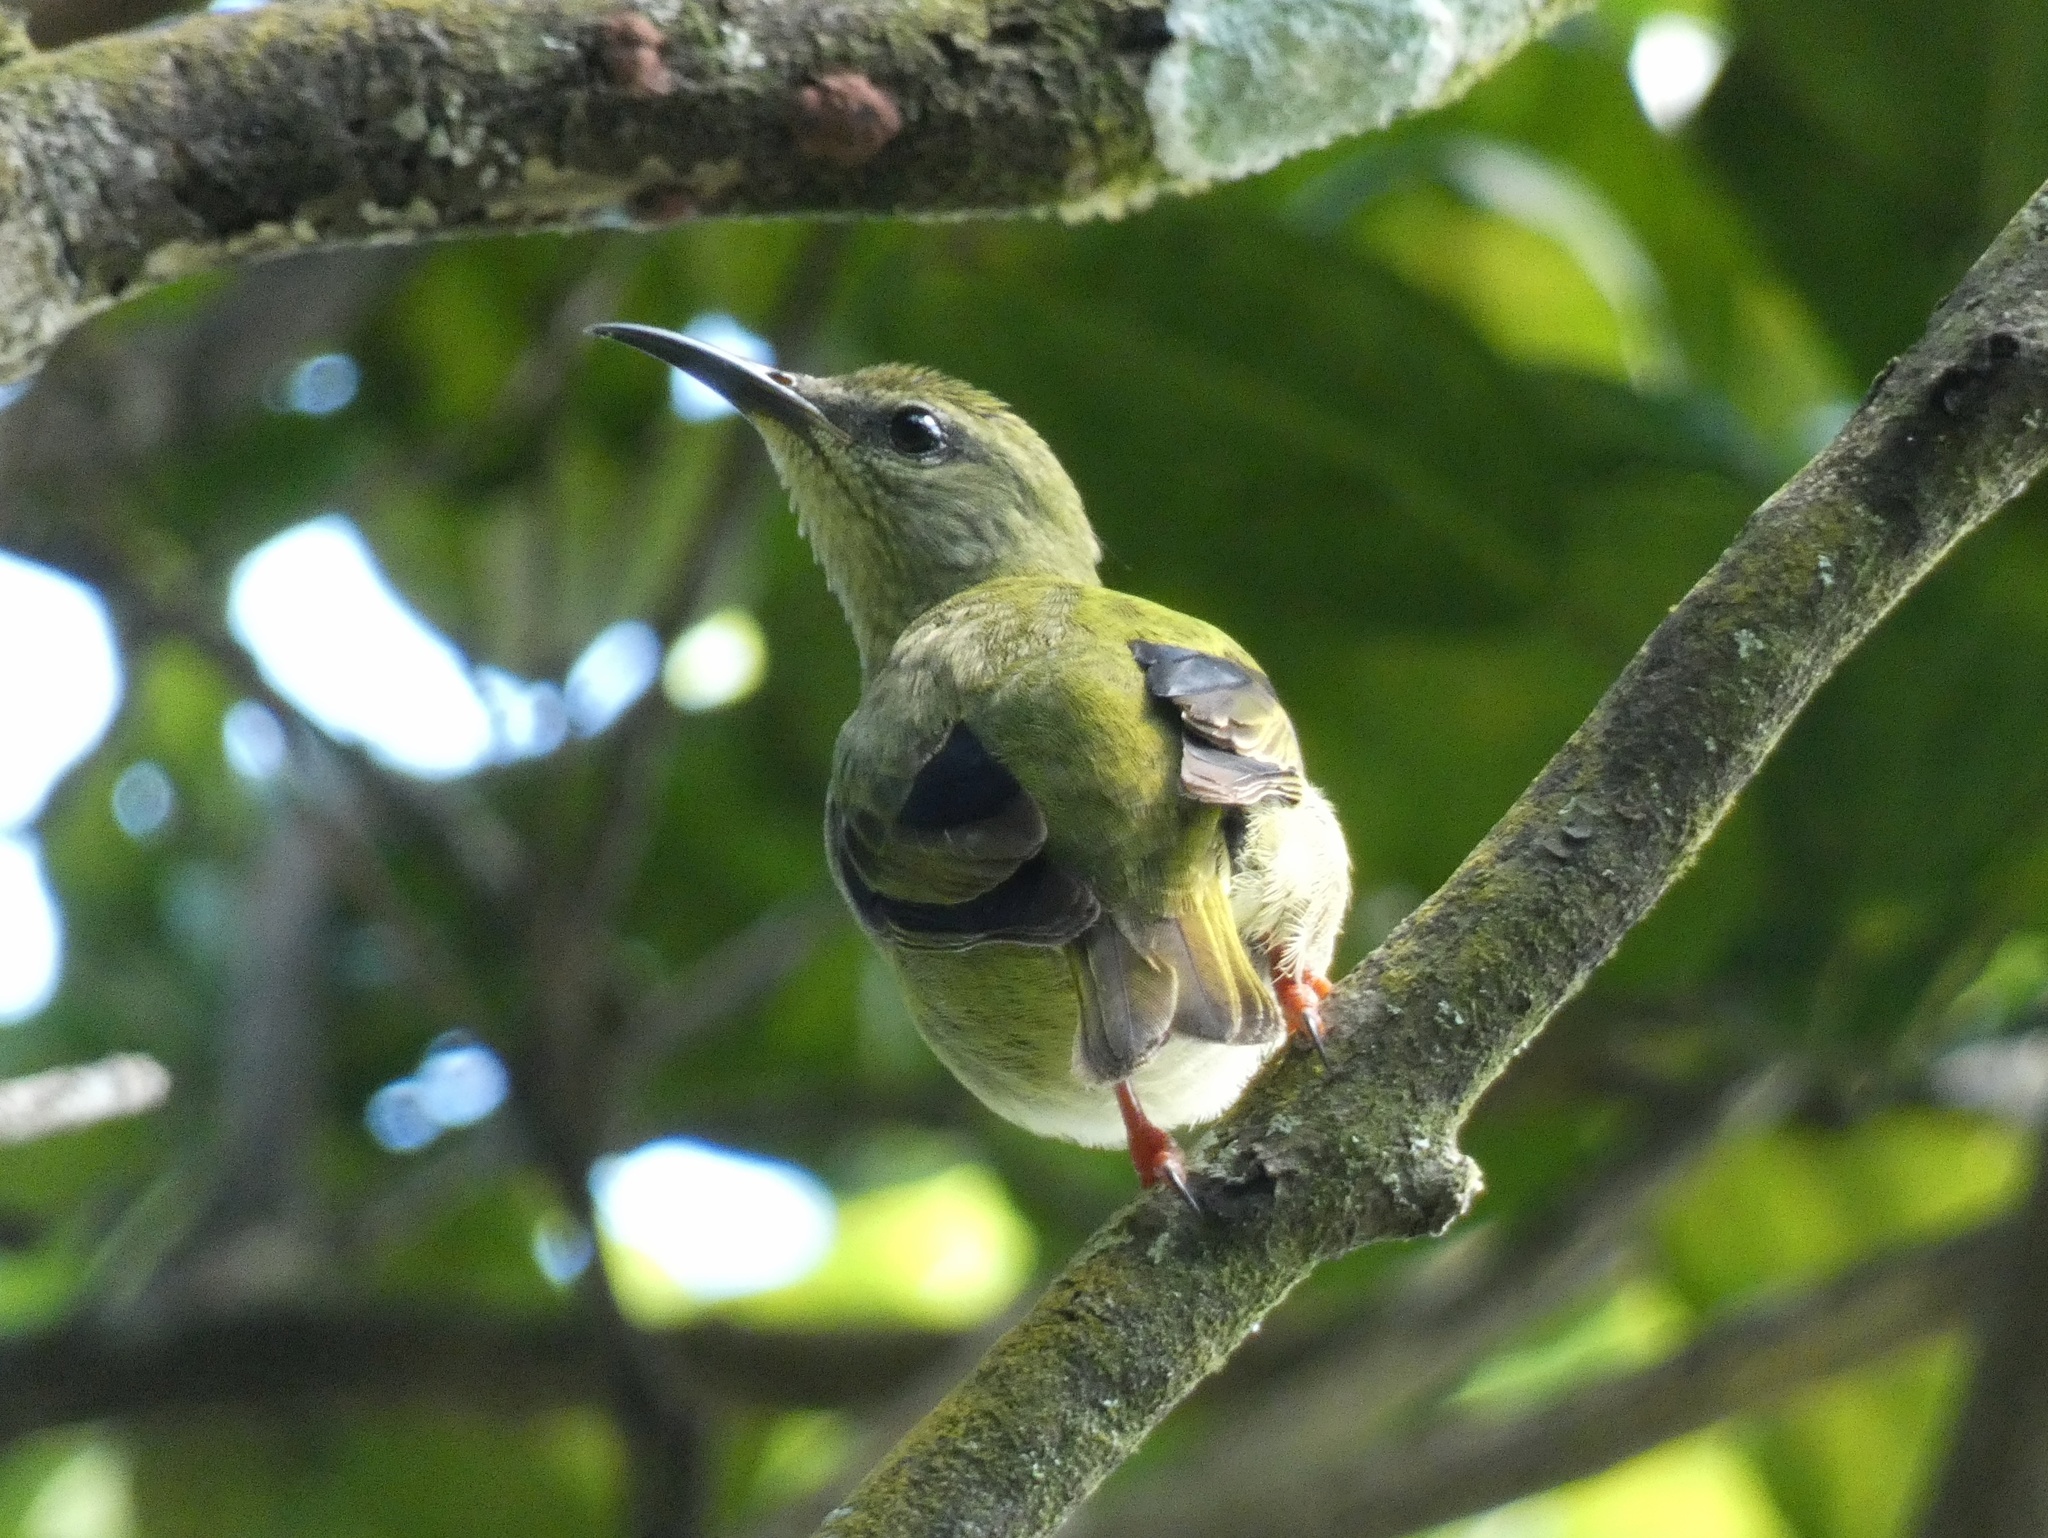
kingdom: Animalia
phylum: Chordata
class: Aves
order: Passeriformes
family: Thraupidae
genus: Cyanerpes
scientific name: Cyanerpes cyaneus
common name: Red-legged honeycreeper
